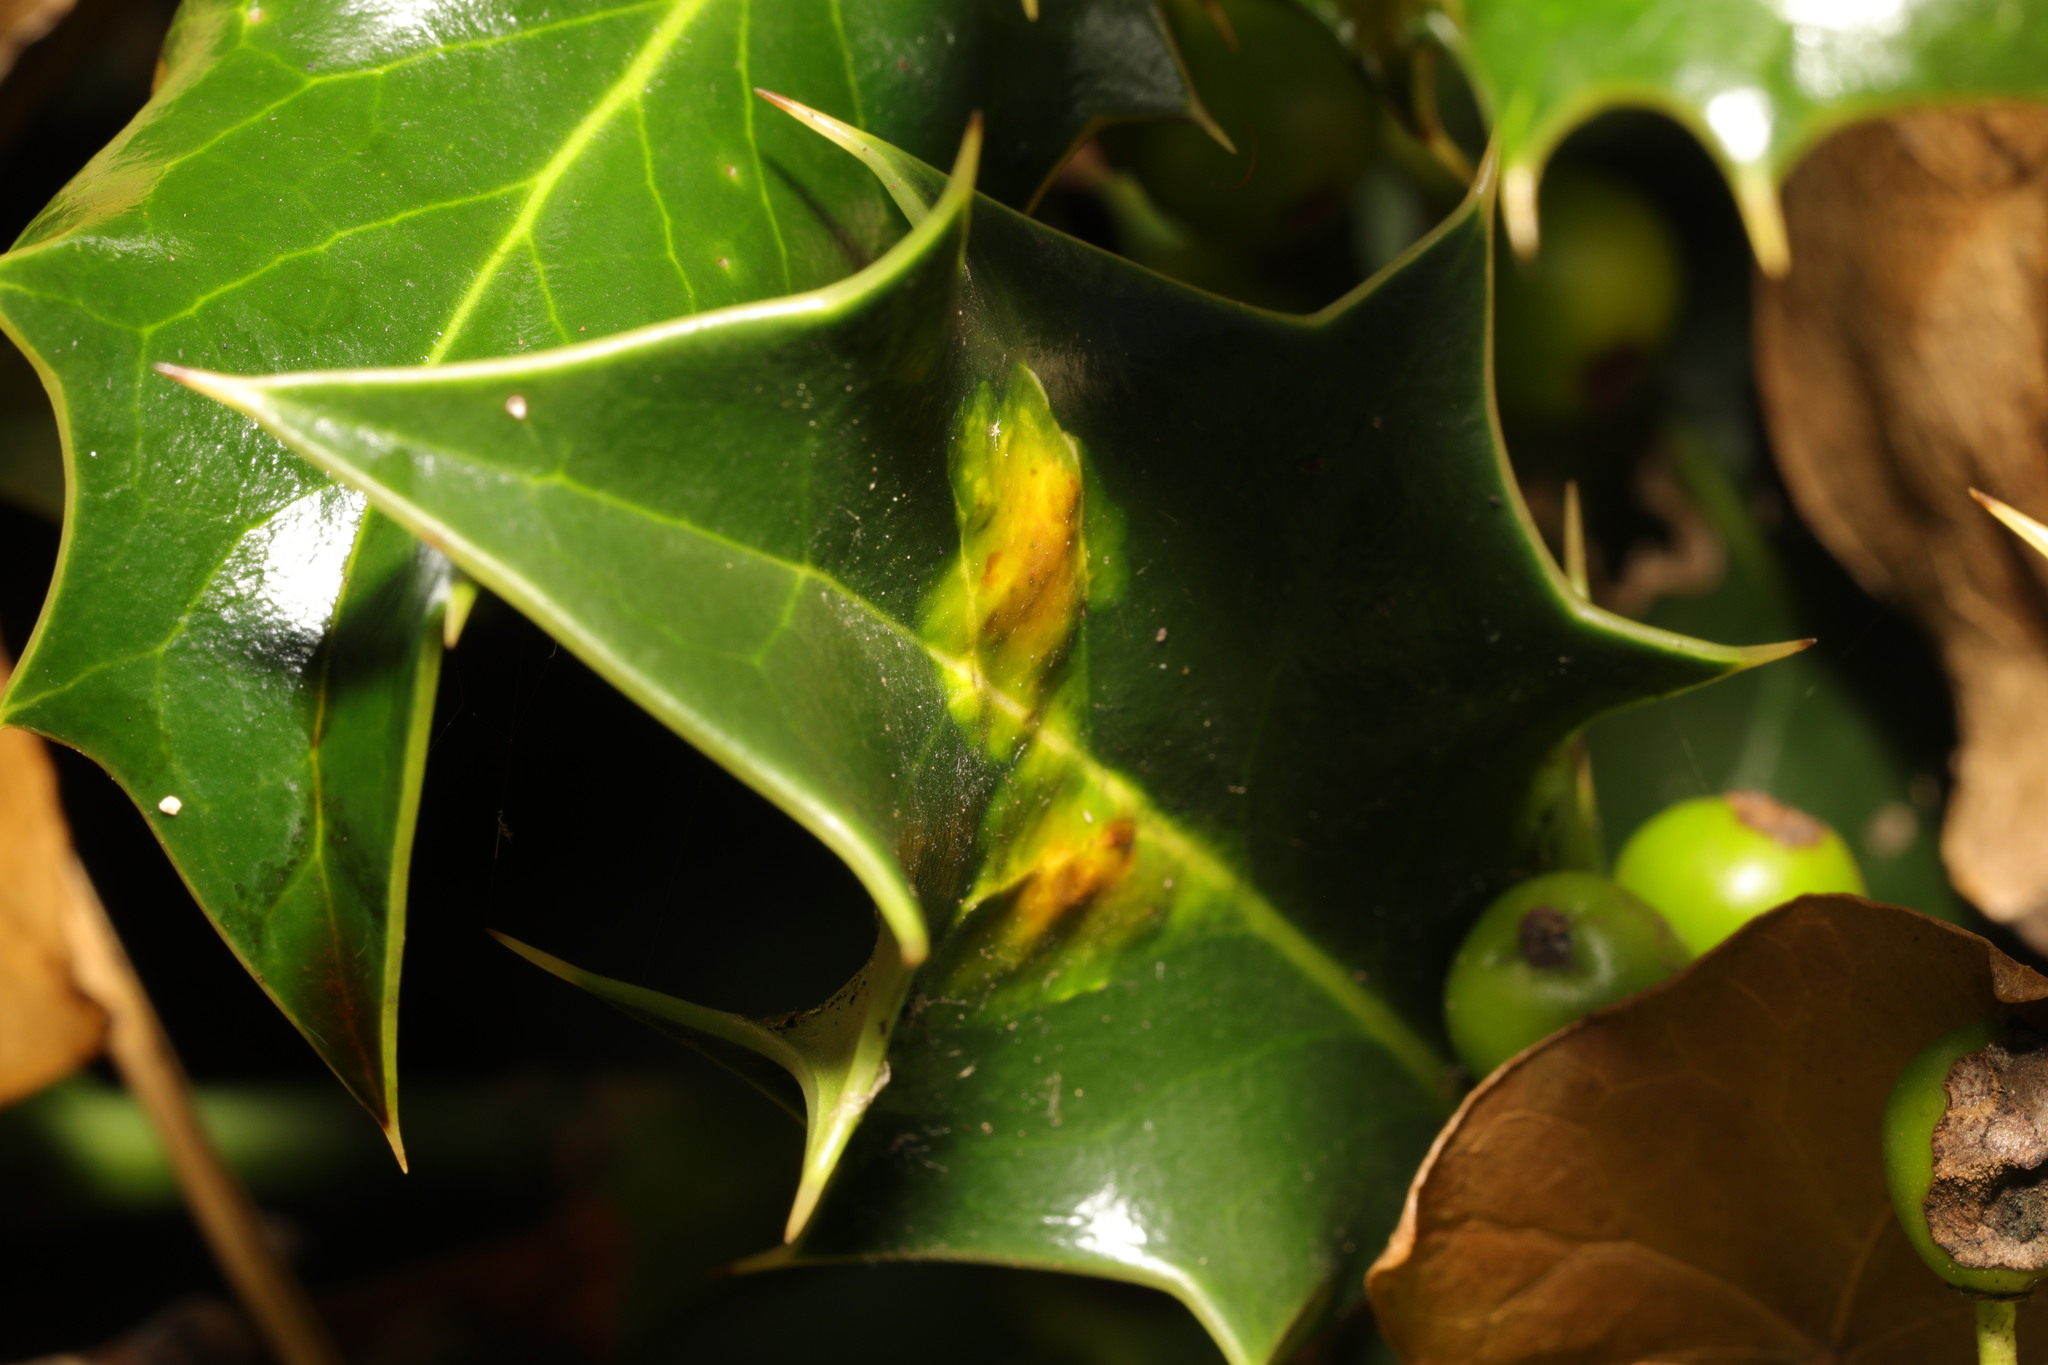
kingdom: Animalia
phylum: Arthropoda
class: Insecta
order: Diptera
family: Agromyzidae
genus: Phytomyza
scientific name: Phytomyza ilicis
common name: Holly leafminer
